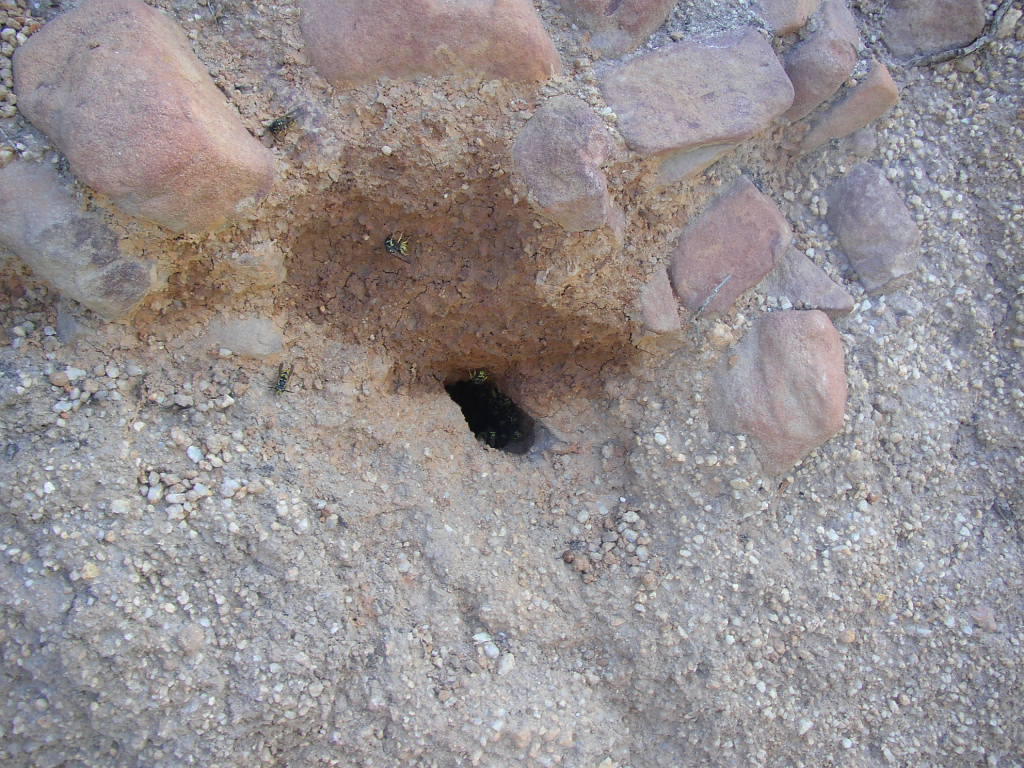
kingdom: Animalia
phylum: Arthropoda
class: Insecta
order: Hymenoptera
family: Vespidae
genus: Vespula
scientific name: Vespula germanica
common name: German wasp
